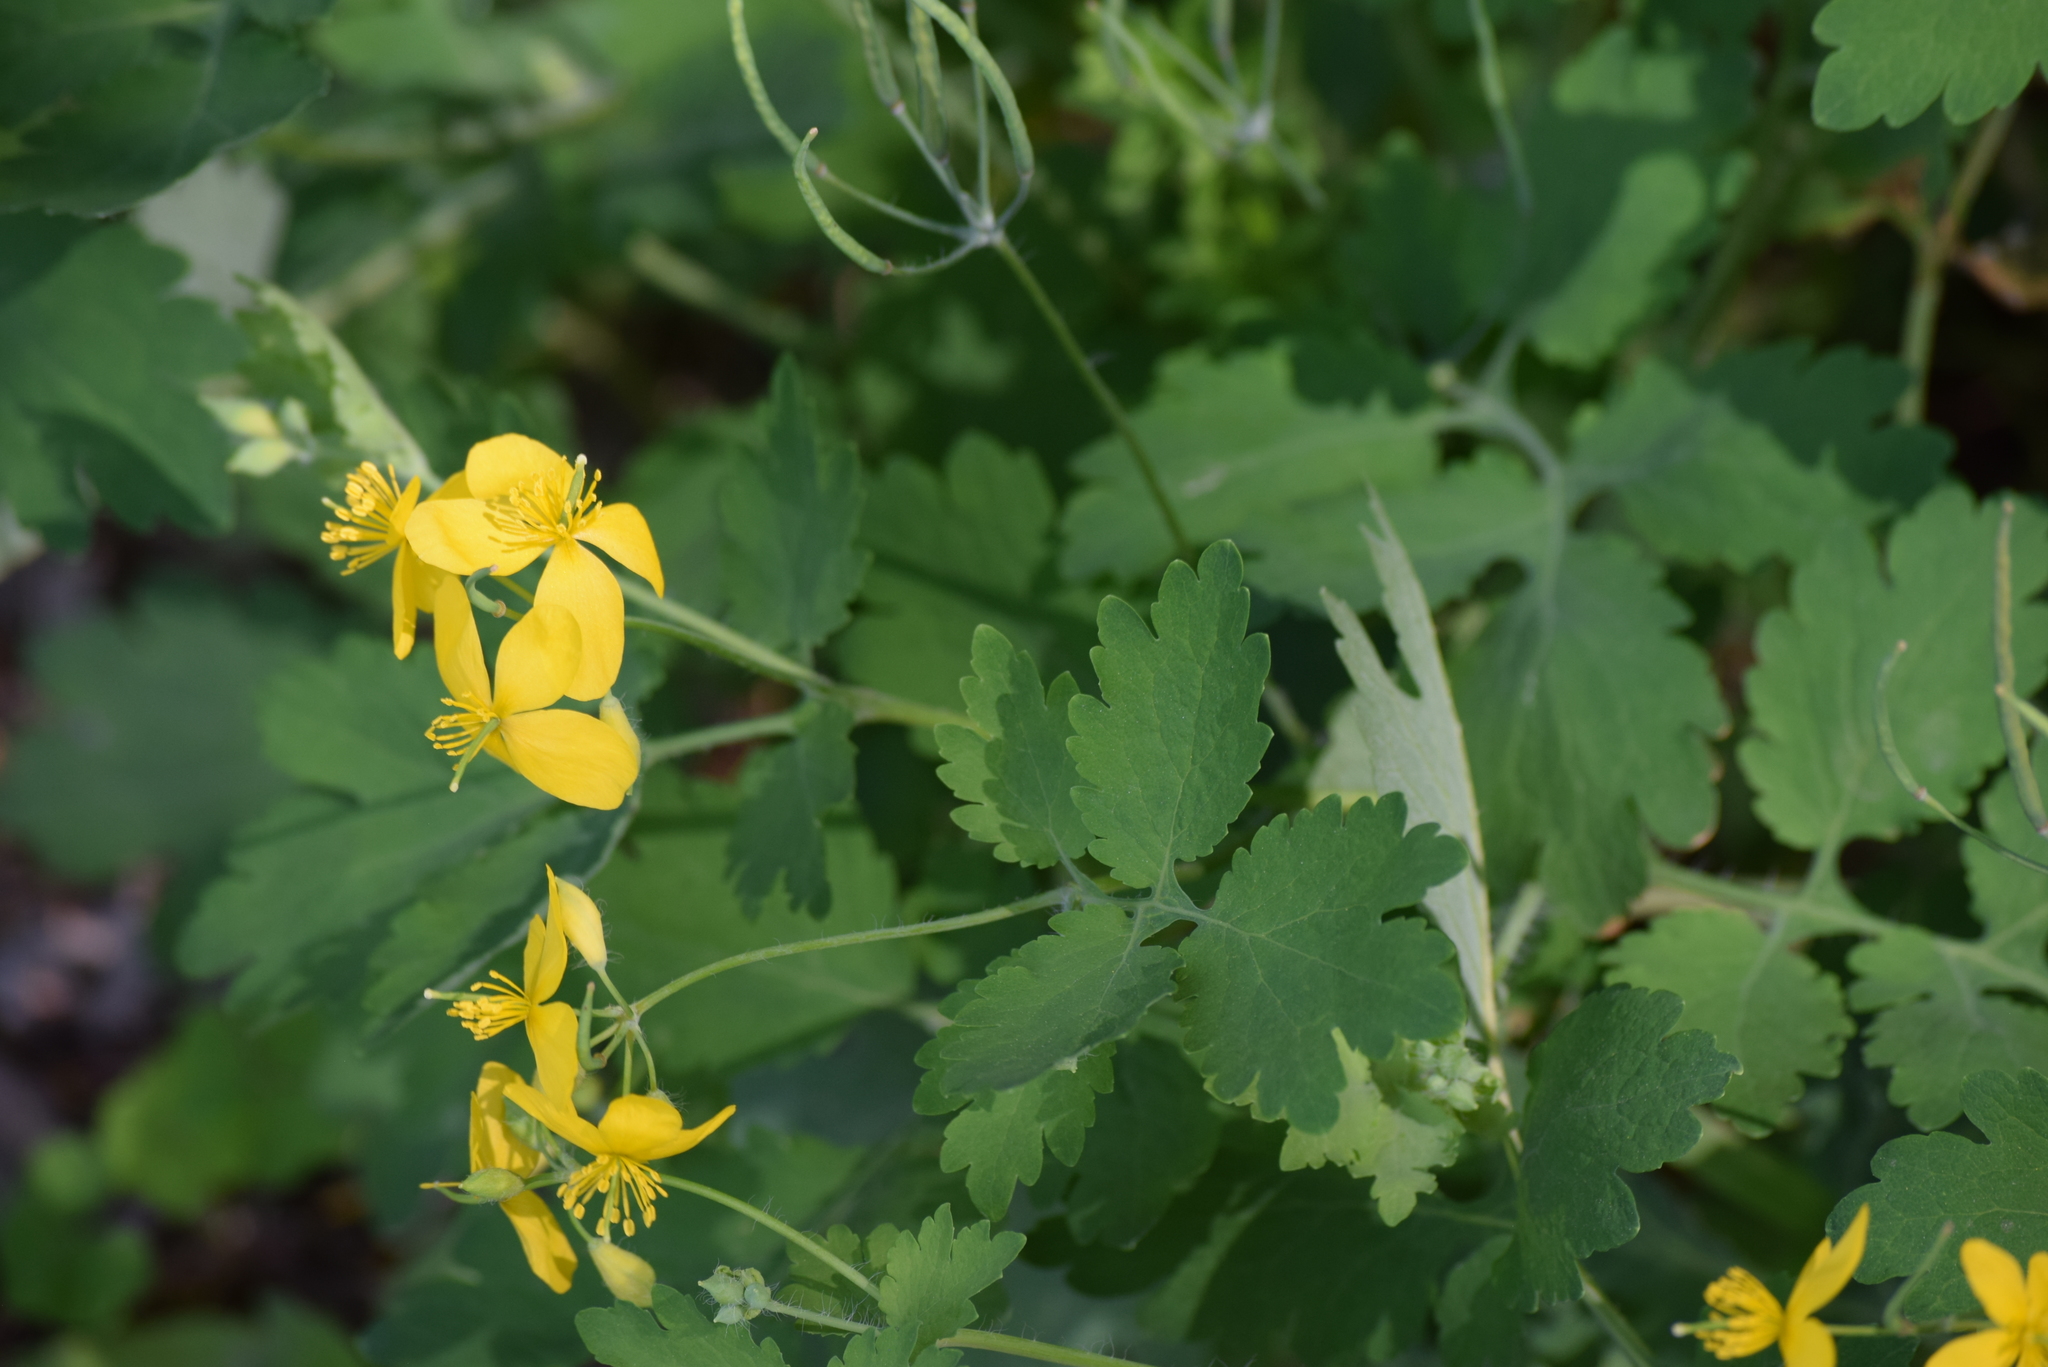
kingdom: Plantae
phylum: Tracheophyta
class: Magnoliopsida
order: Ranunculales
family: Papaveraceae
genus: Chelidonium
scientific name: Chelidonium majus
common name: Greater celandine
